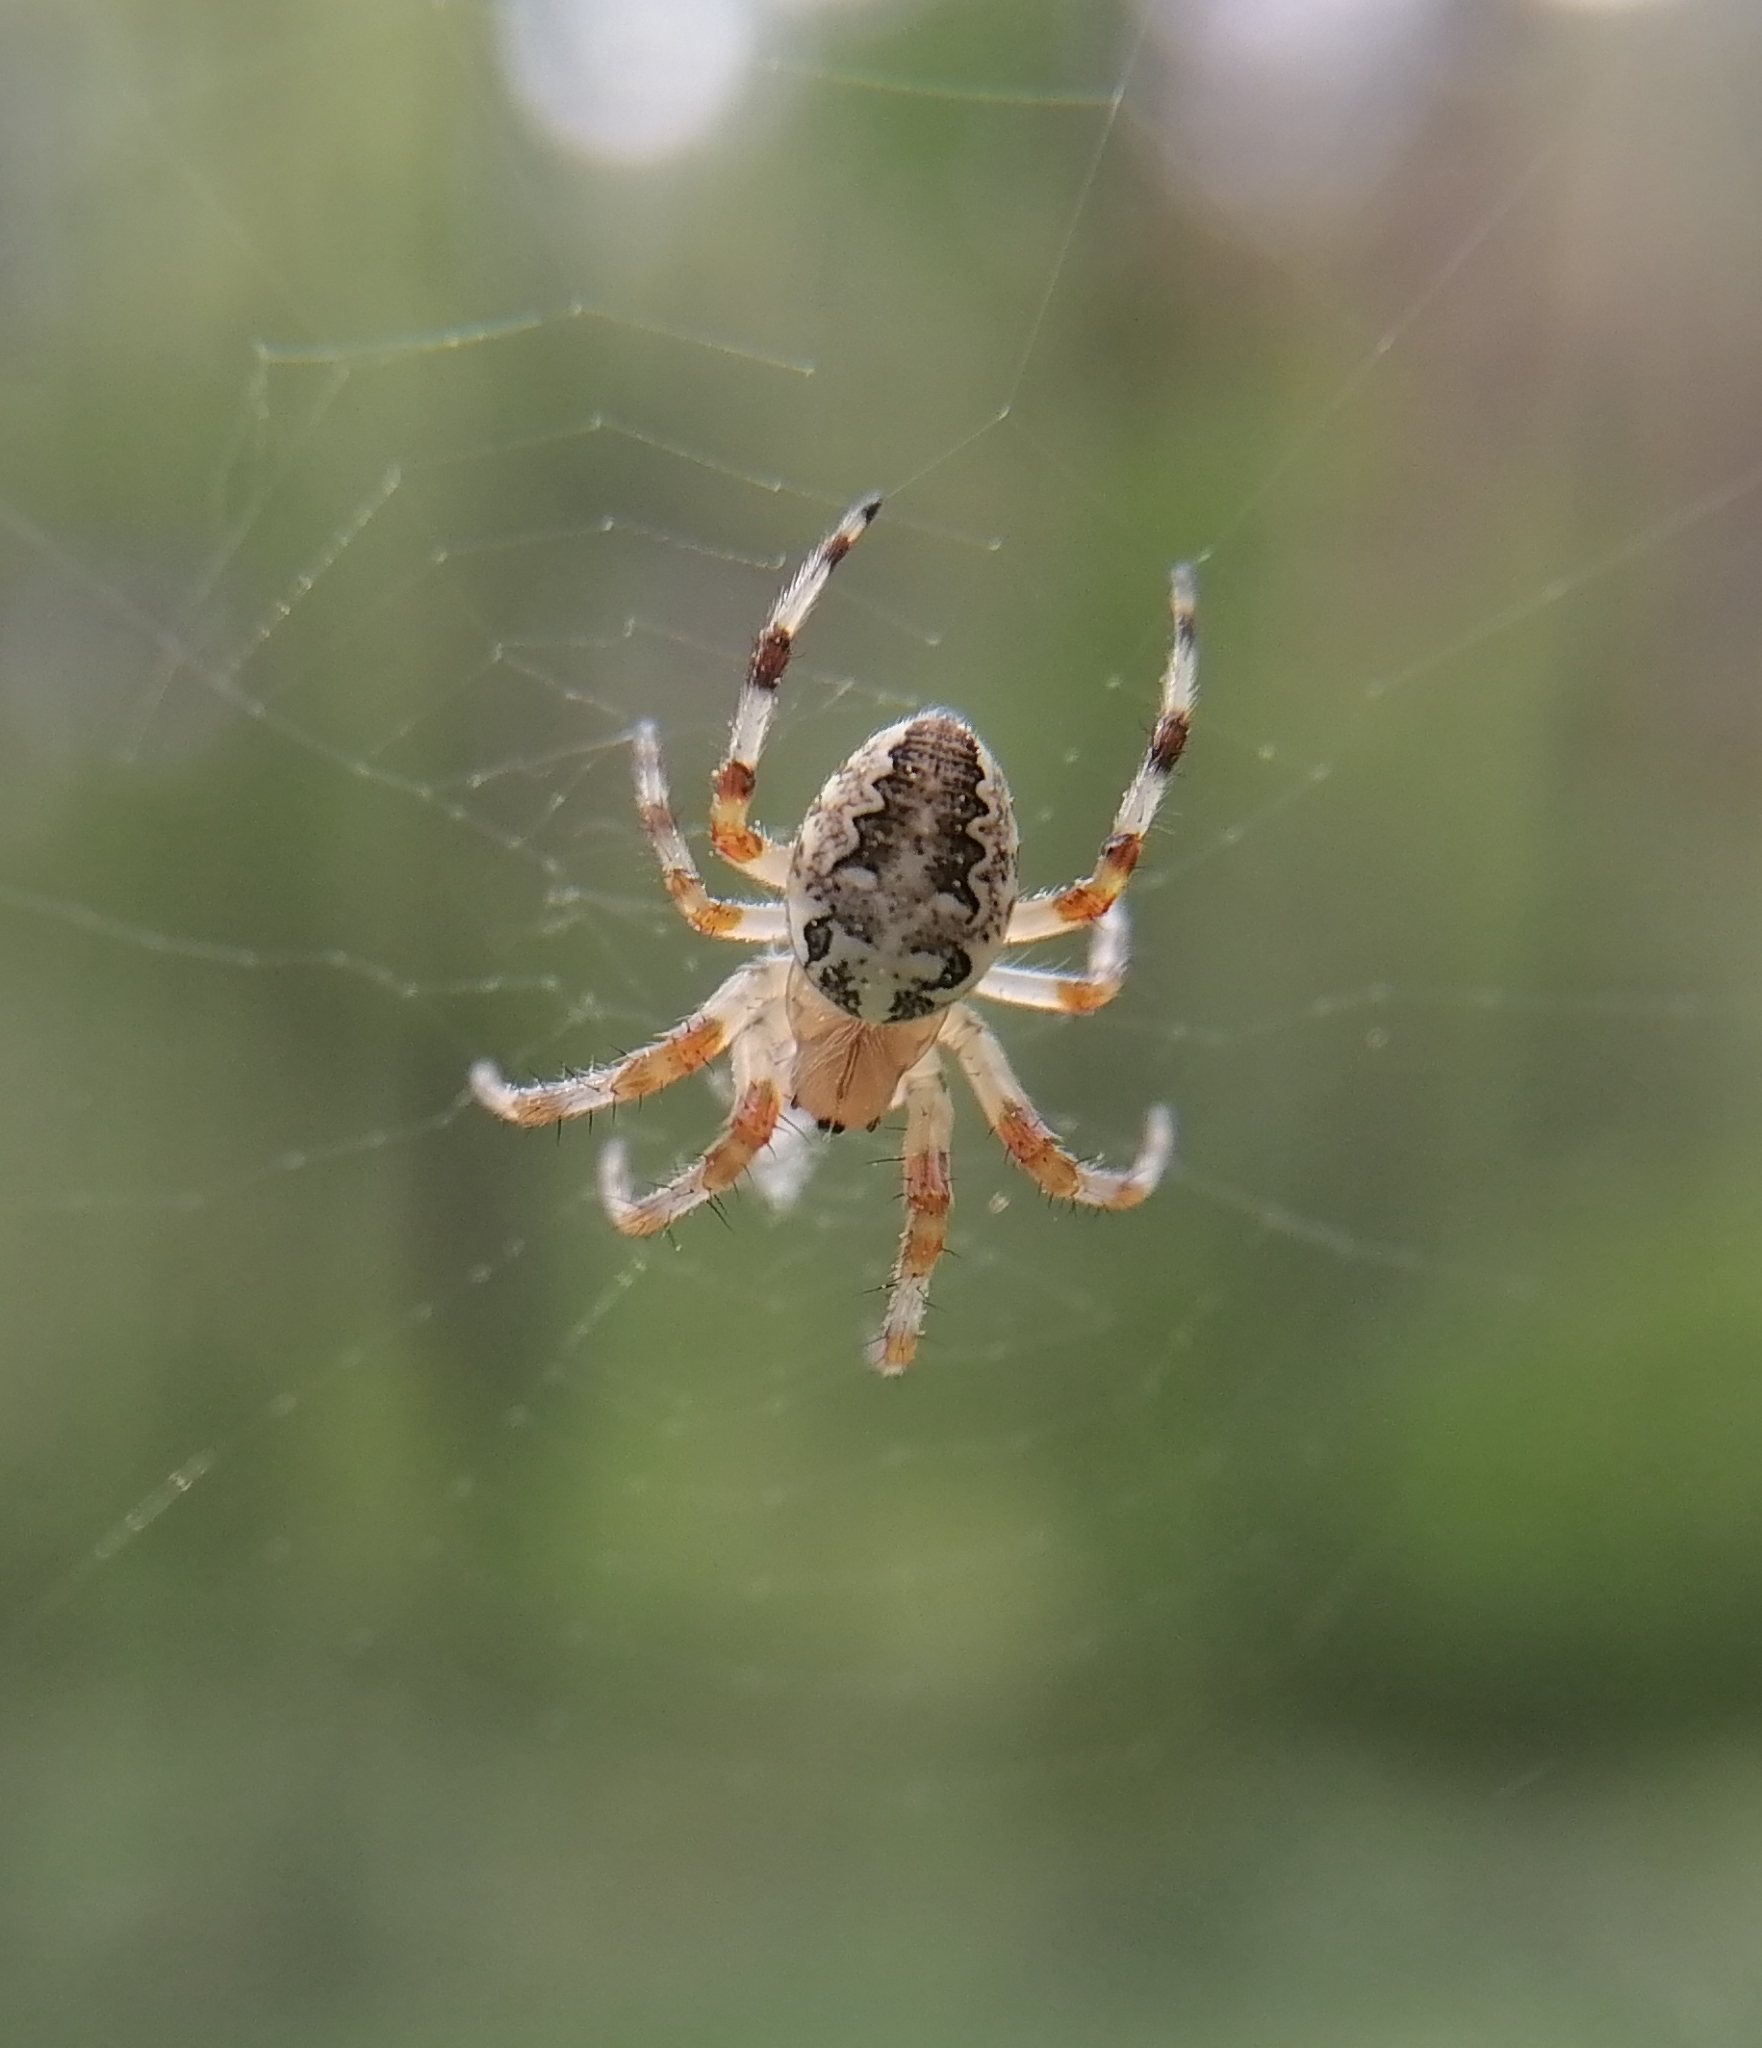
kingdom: Animalia
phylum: Arthropoda
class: Arachnida
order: Araneae
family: Araneidae
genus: Araneus
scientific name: Araneus diadematus
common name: Cross orbweaver
